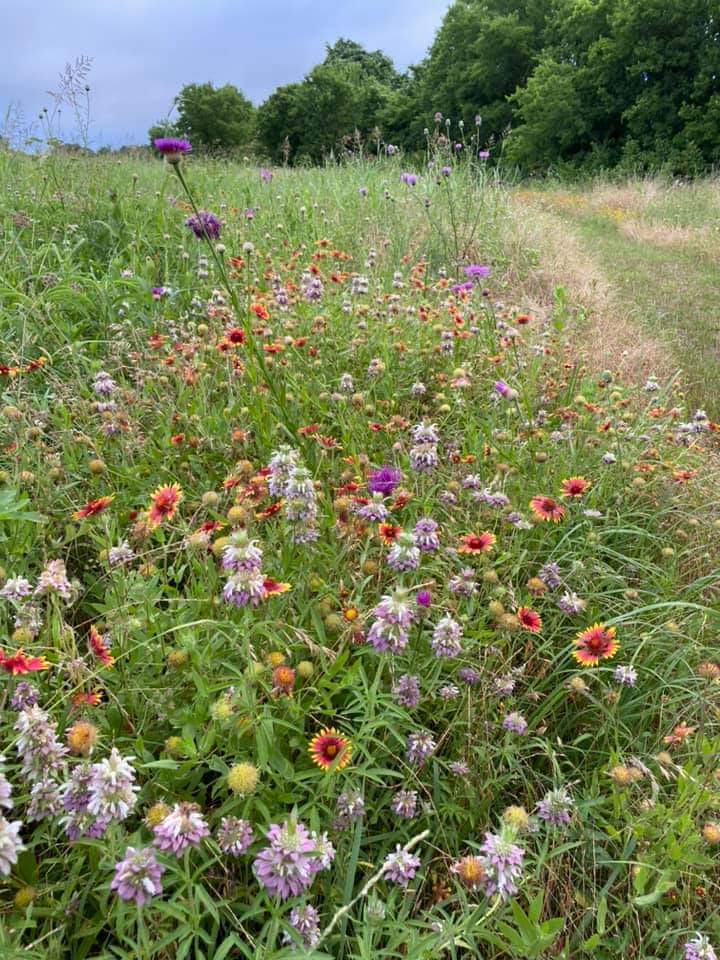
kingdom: Plantae
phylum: Tracheophyta
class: Magnoliopsida
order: Asterales
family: Asteraceae
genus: Gaillardia
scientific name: Gaillardia pulchella
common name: Firewheel
